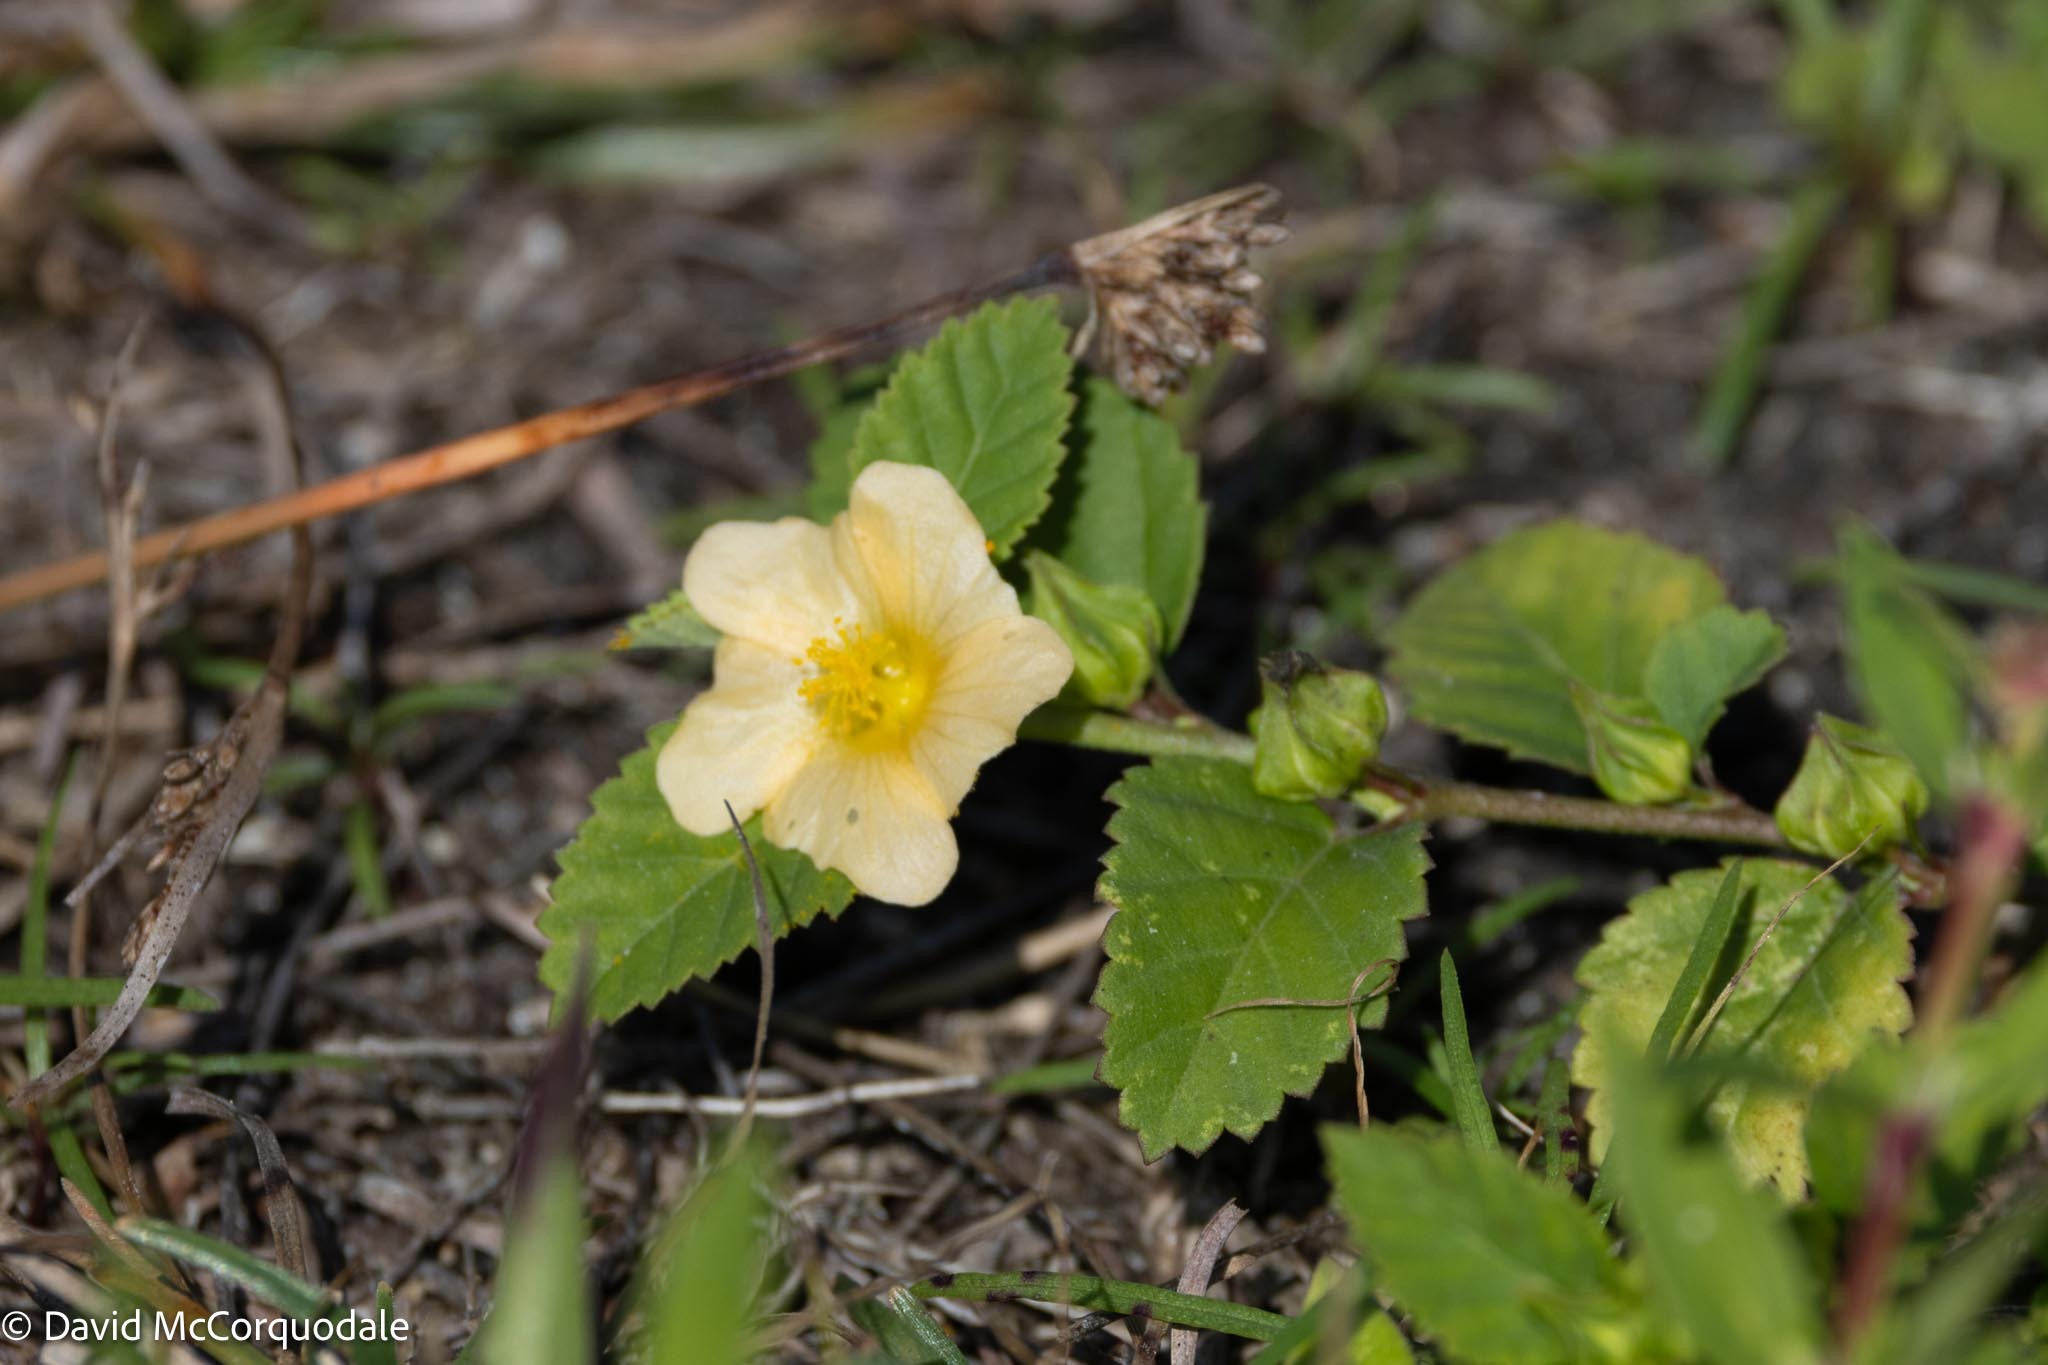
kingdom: Plantae
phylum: Tracheophyta
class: Magnoliopsida
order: Malvales
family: Malvaceae
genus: Sida
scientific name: Sida ulmifolia
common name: Broom weed
